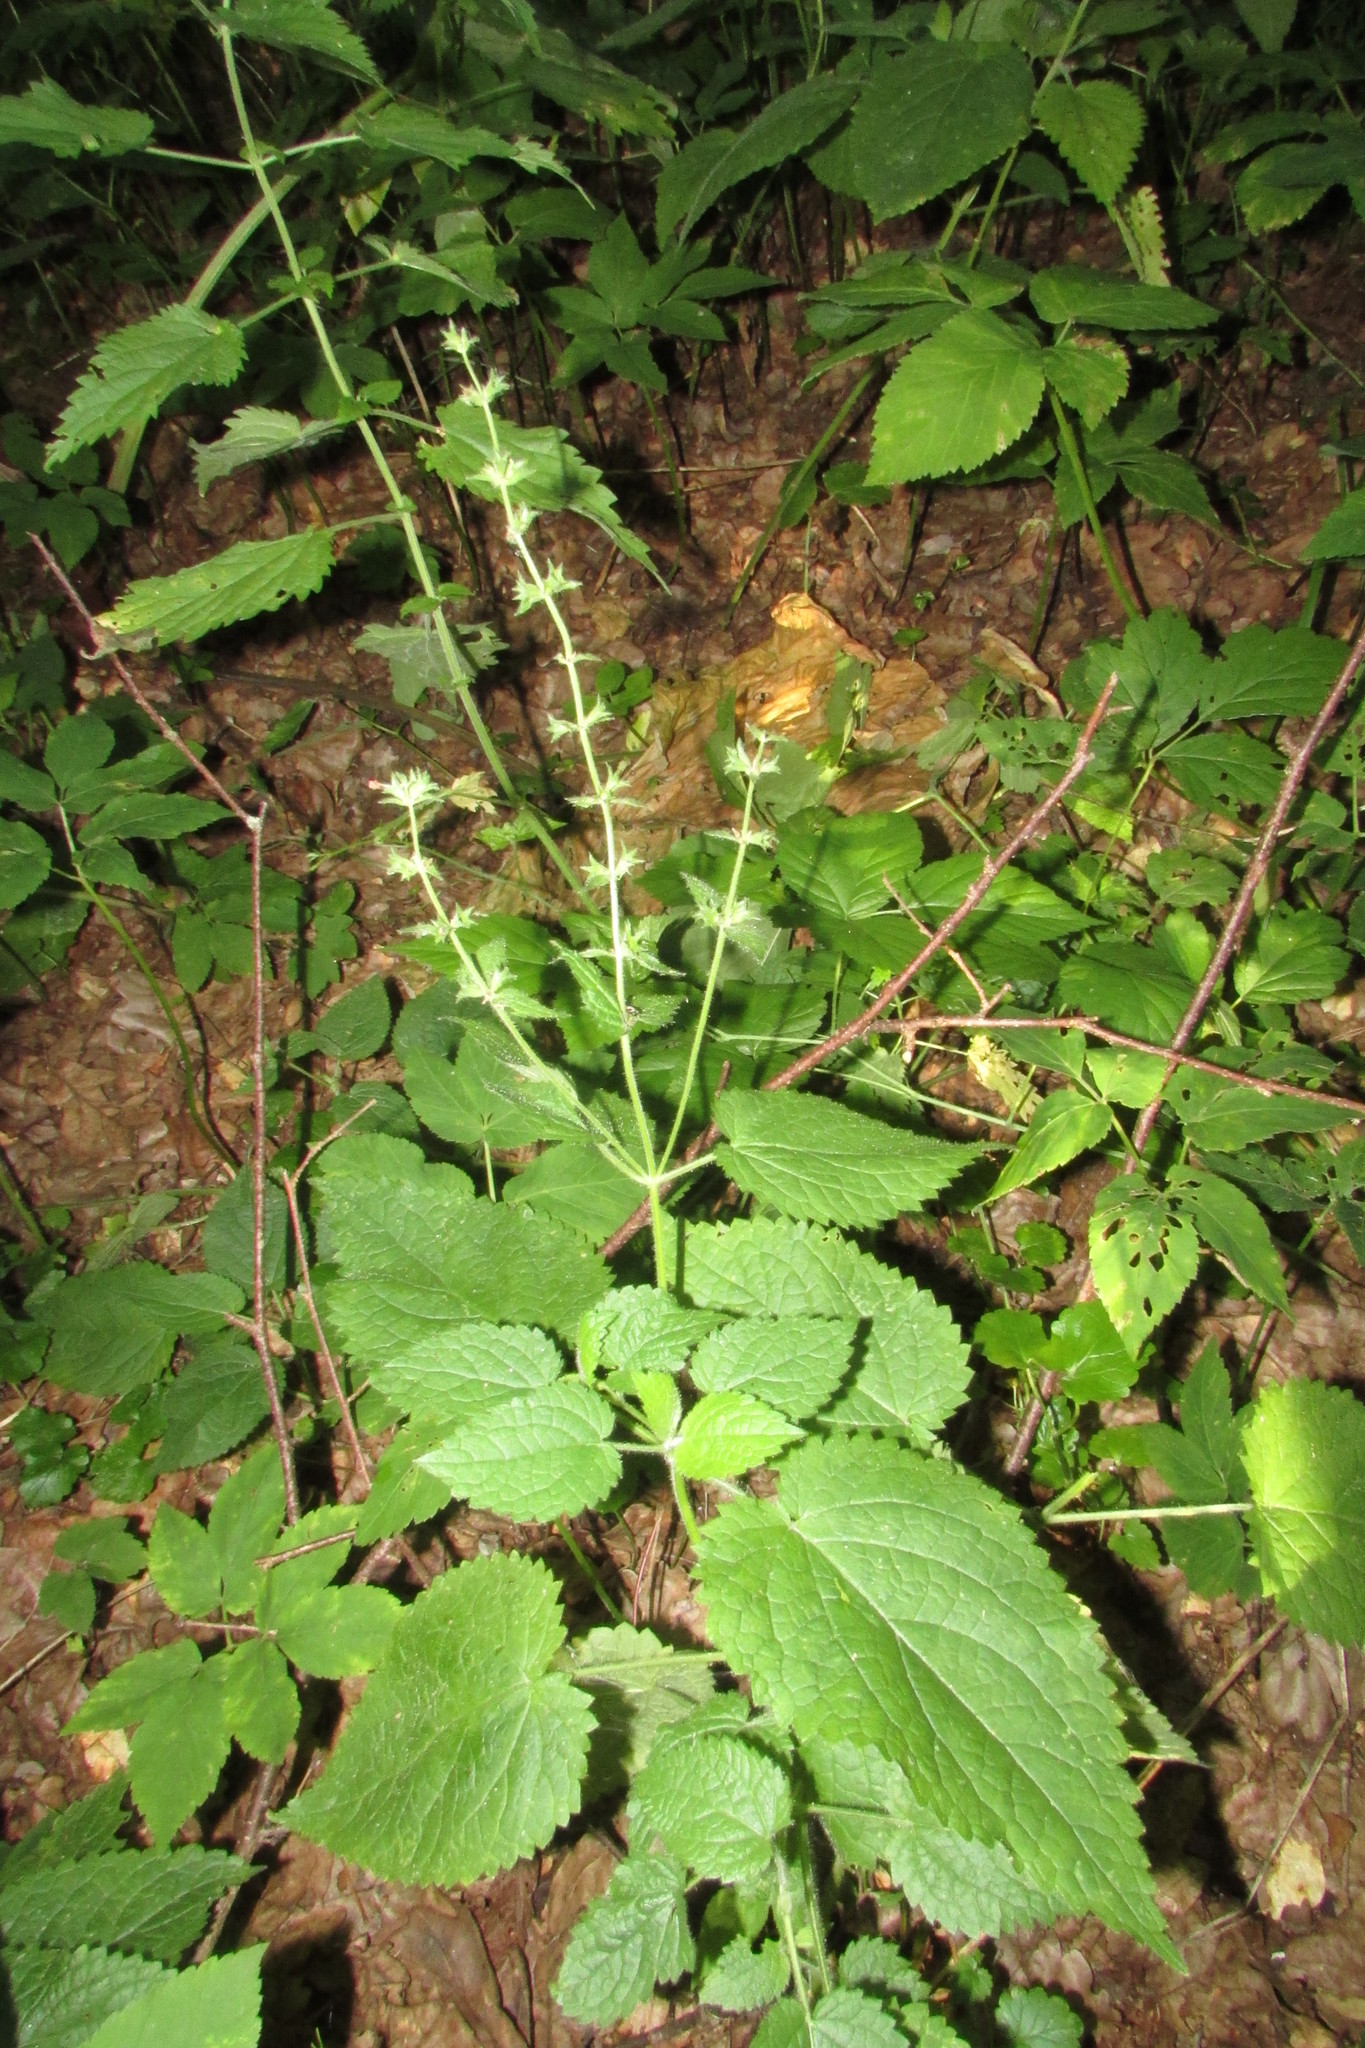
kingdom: Plantae
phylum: Tracheophyta
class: Magnoliopsida
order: Lamiales
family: Lamiaceae
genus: Stachys
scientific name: Stachys sylvatica
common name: Hedge woundwort
